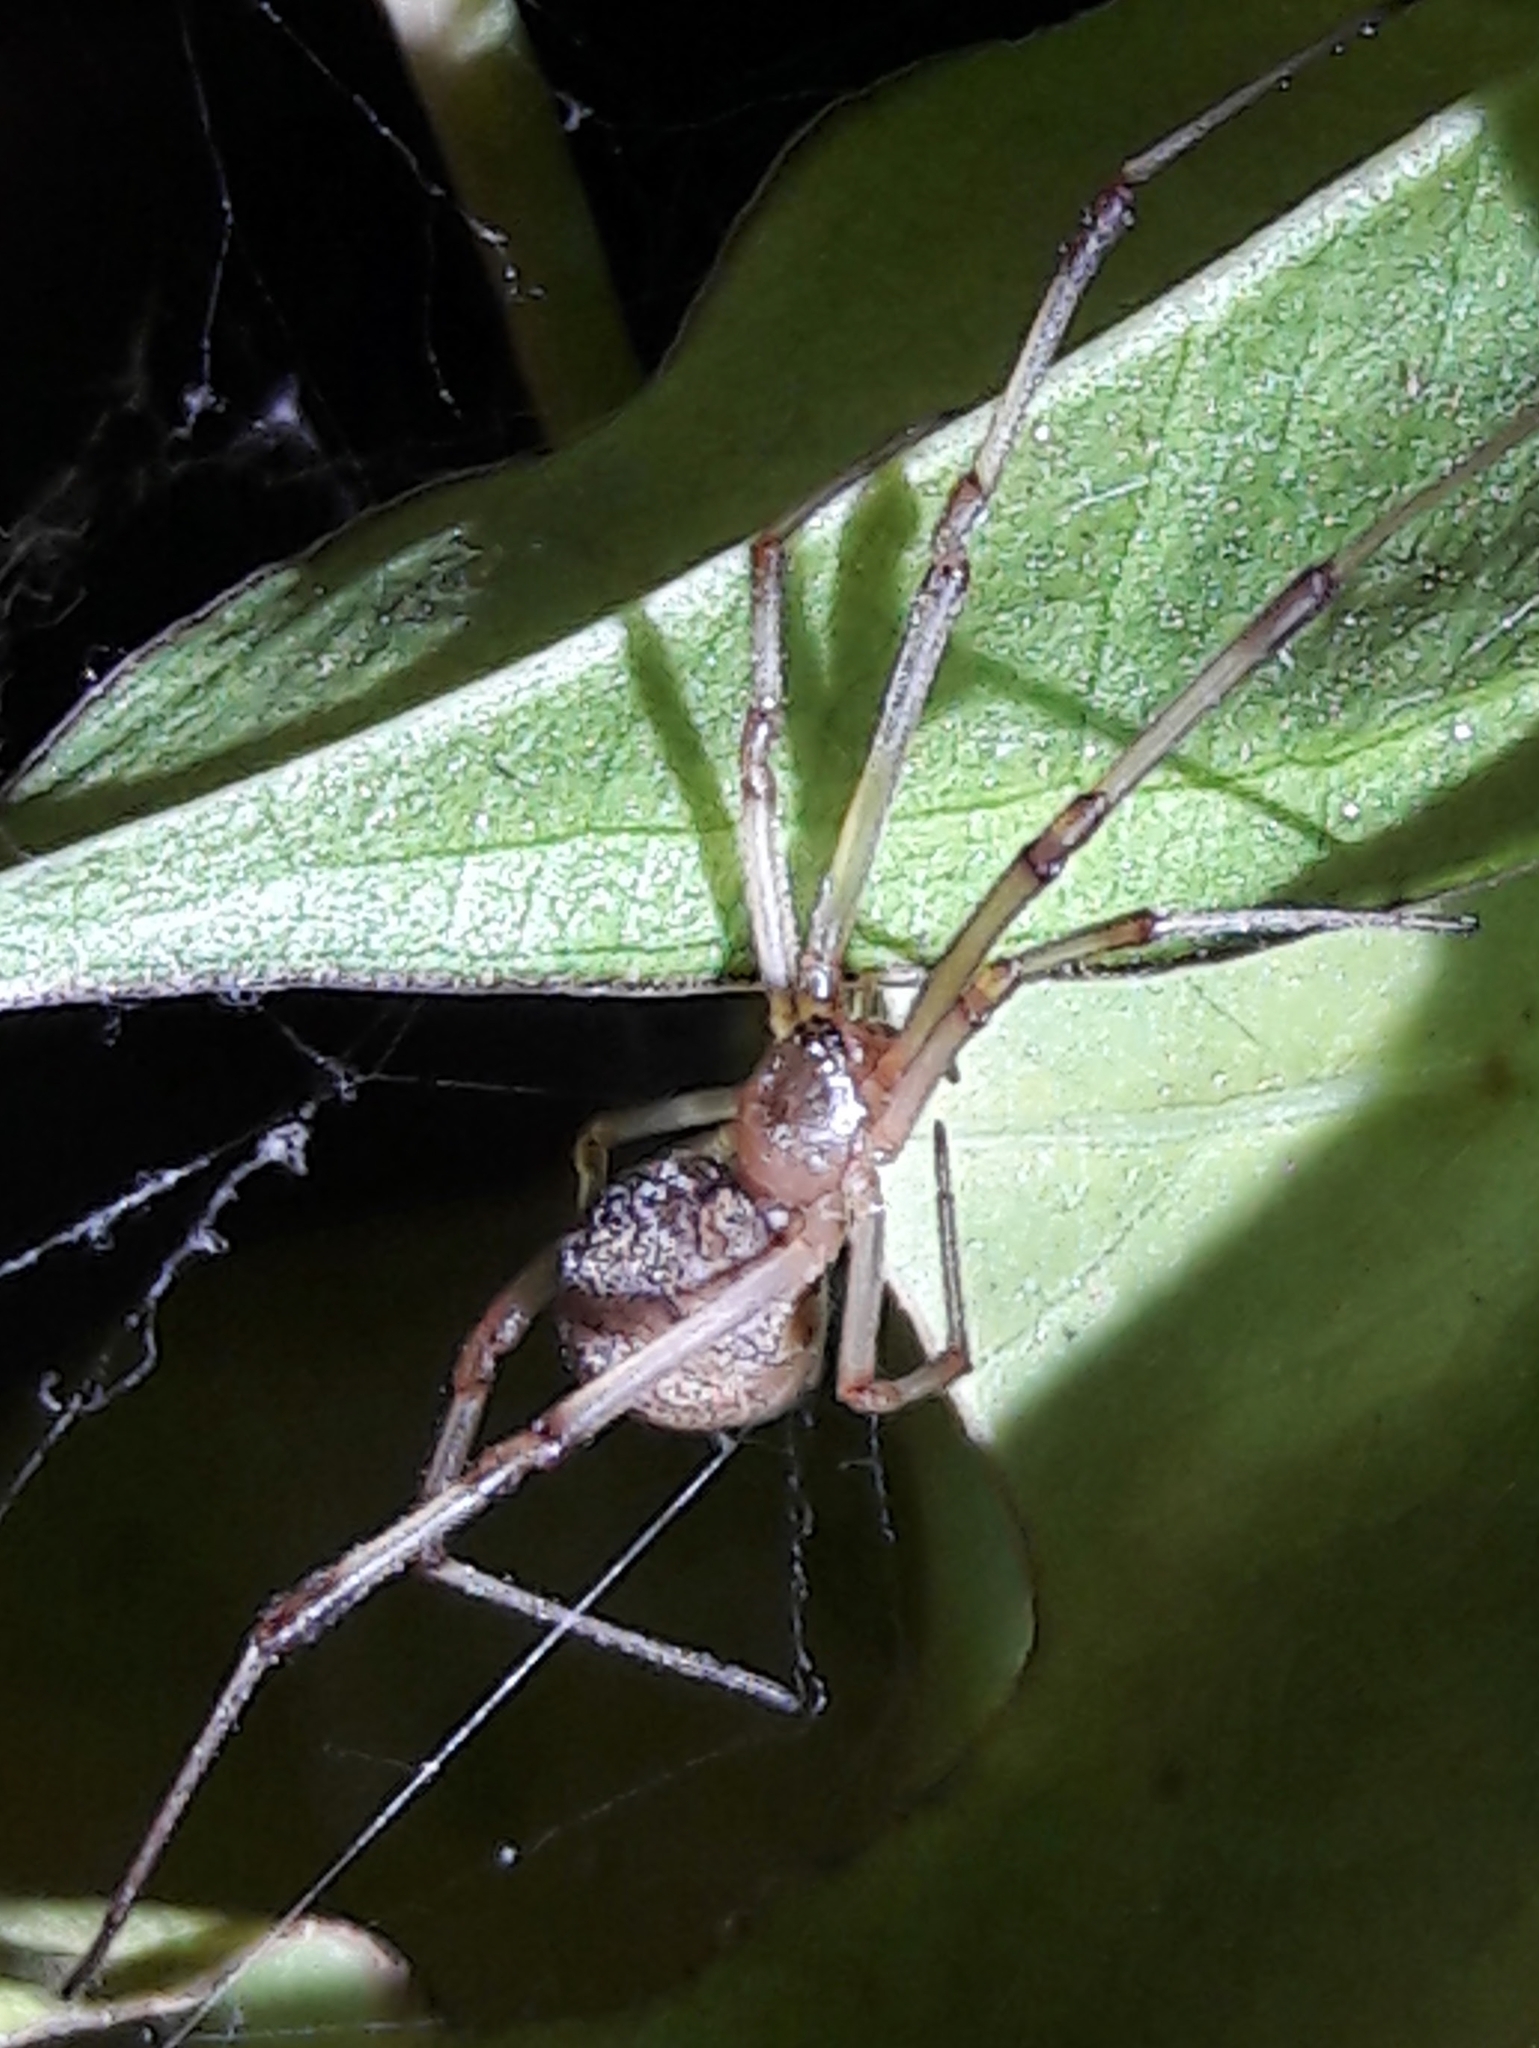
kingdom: Animalia
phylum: Arthropoda
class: Arachnida
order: Araneae
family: Theridiidae
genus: Latrodectus
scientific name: Latrodectus geometricus
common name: Brown widow spider
